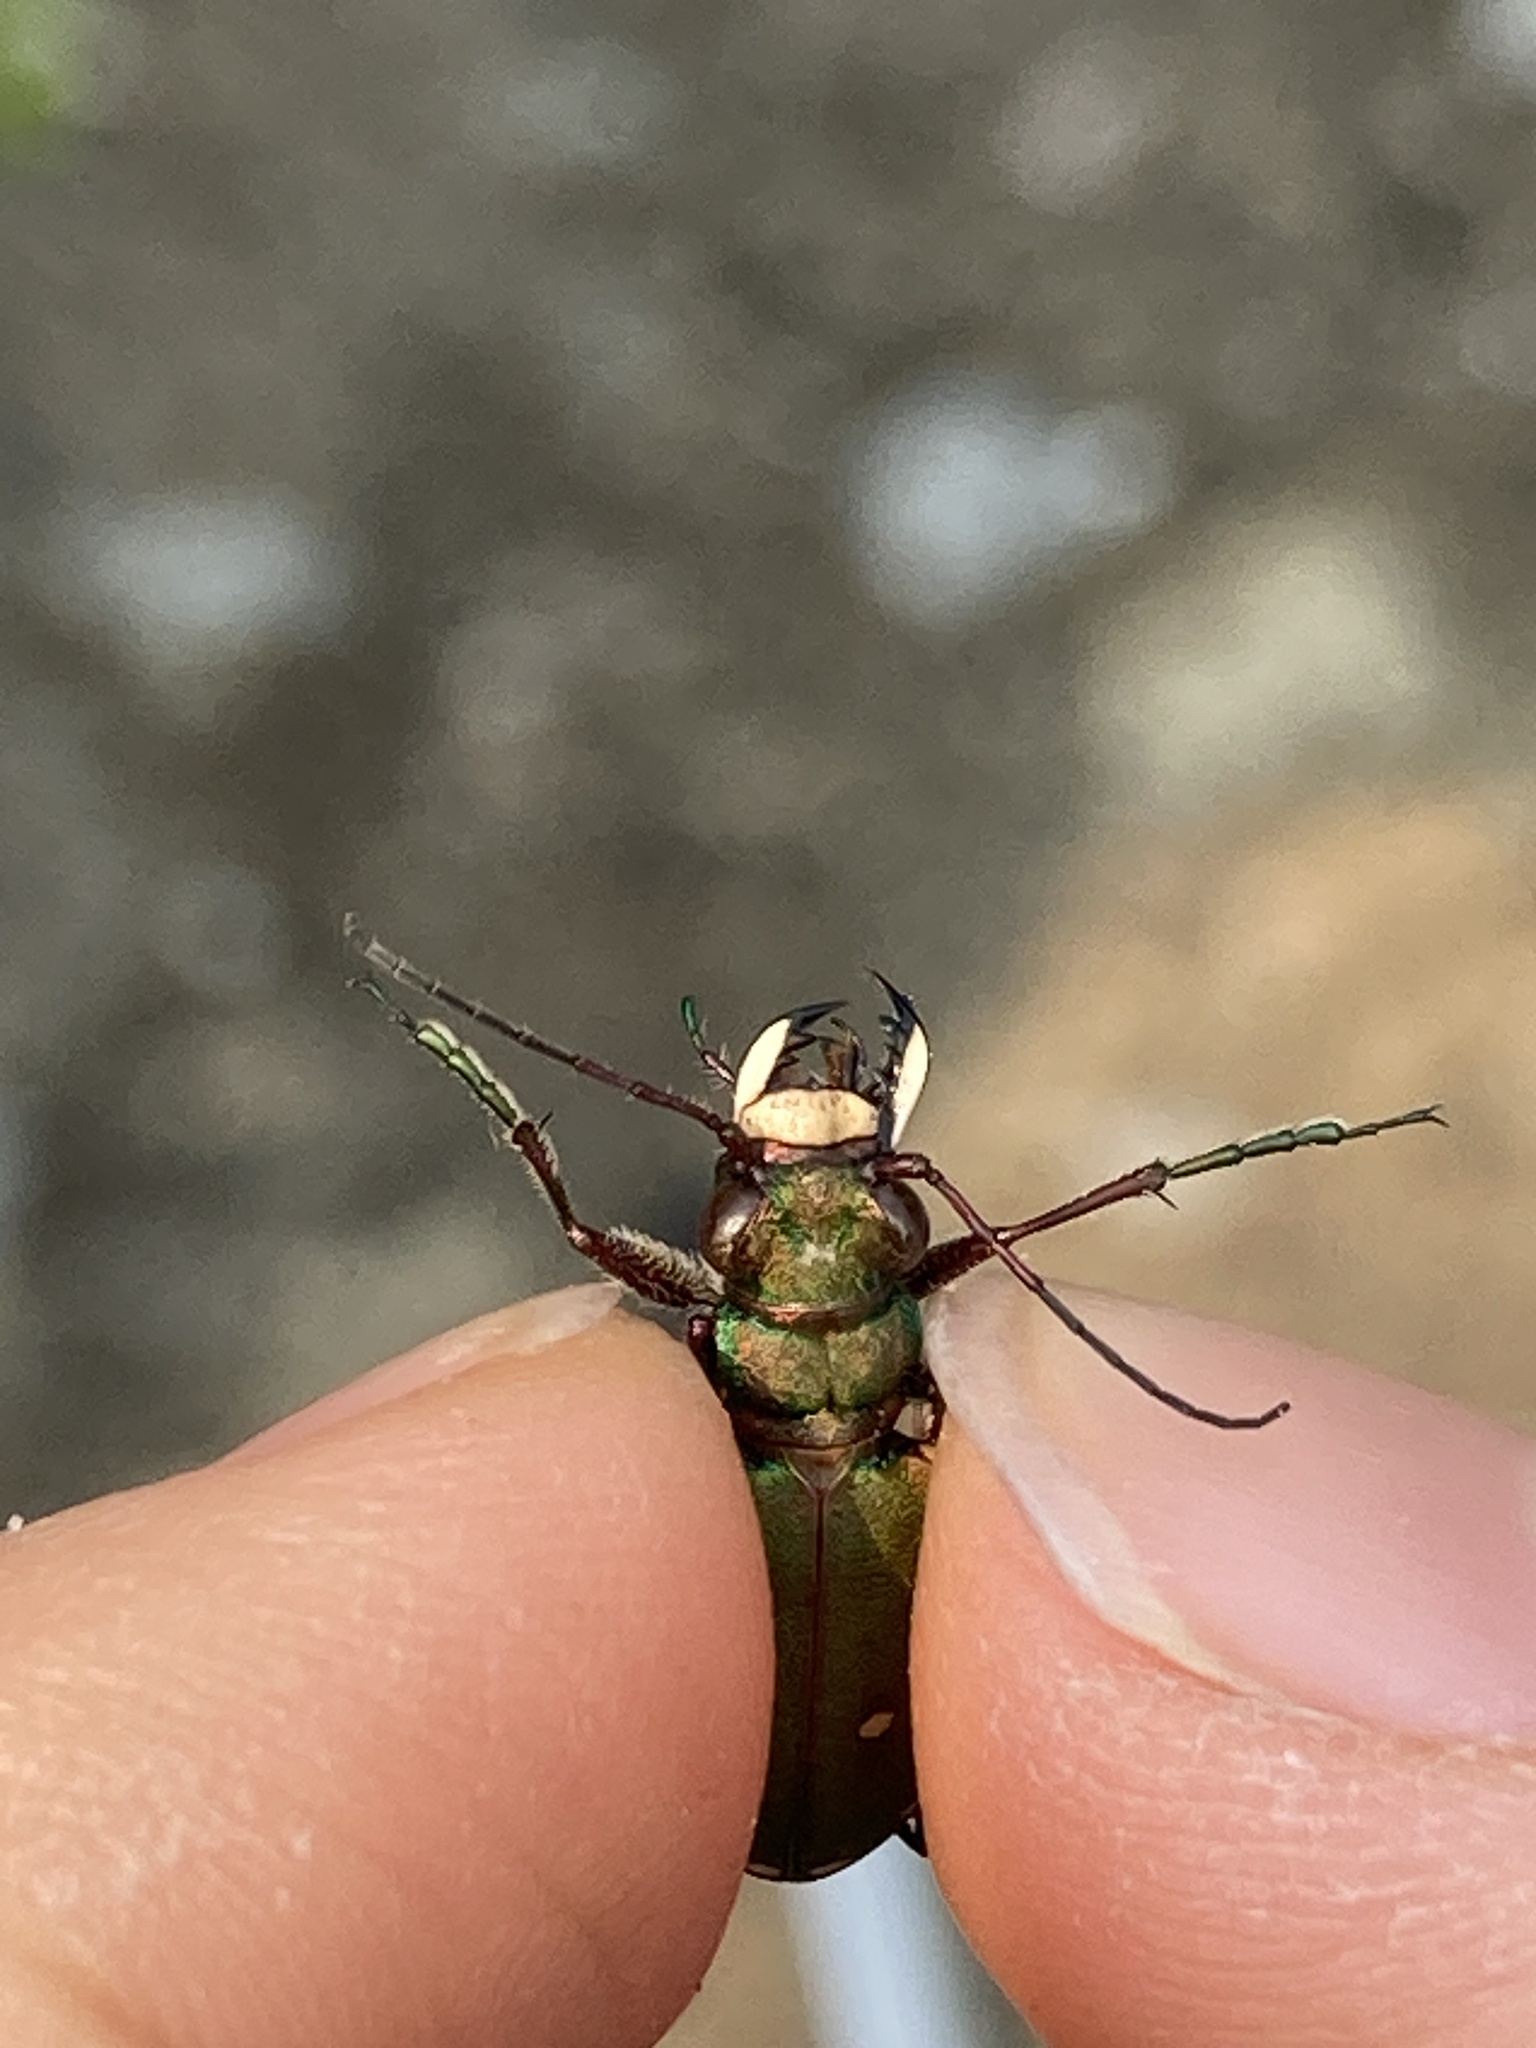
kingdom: Animalia
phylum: Arthropoda
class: Insecta
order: Coleoptera
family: Carabidae
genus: Cicindela
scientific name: Cicindela campestris
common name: Common tiger beetle
